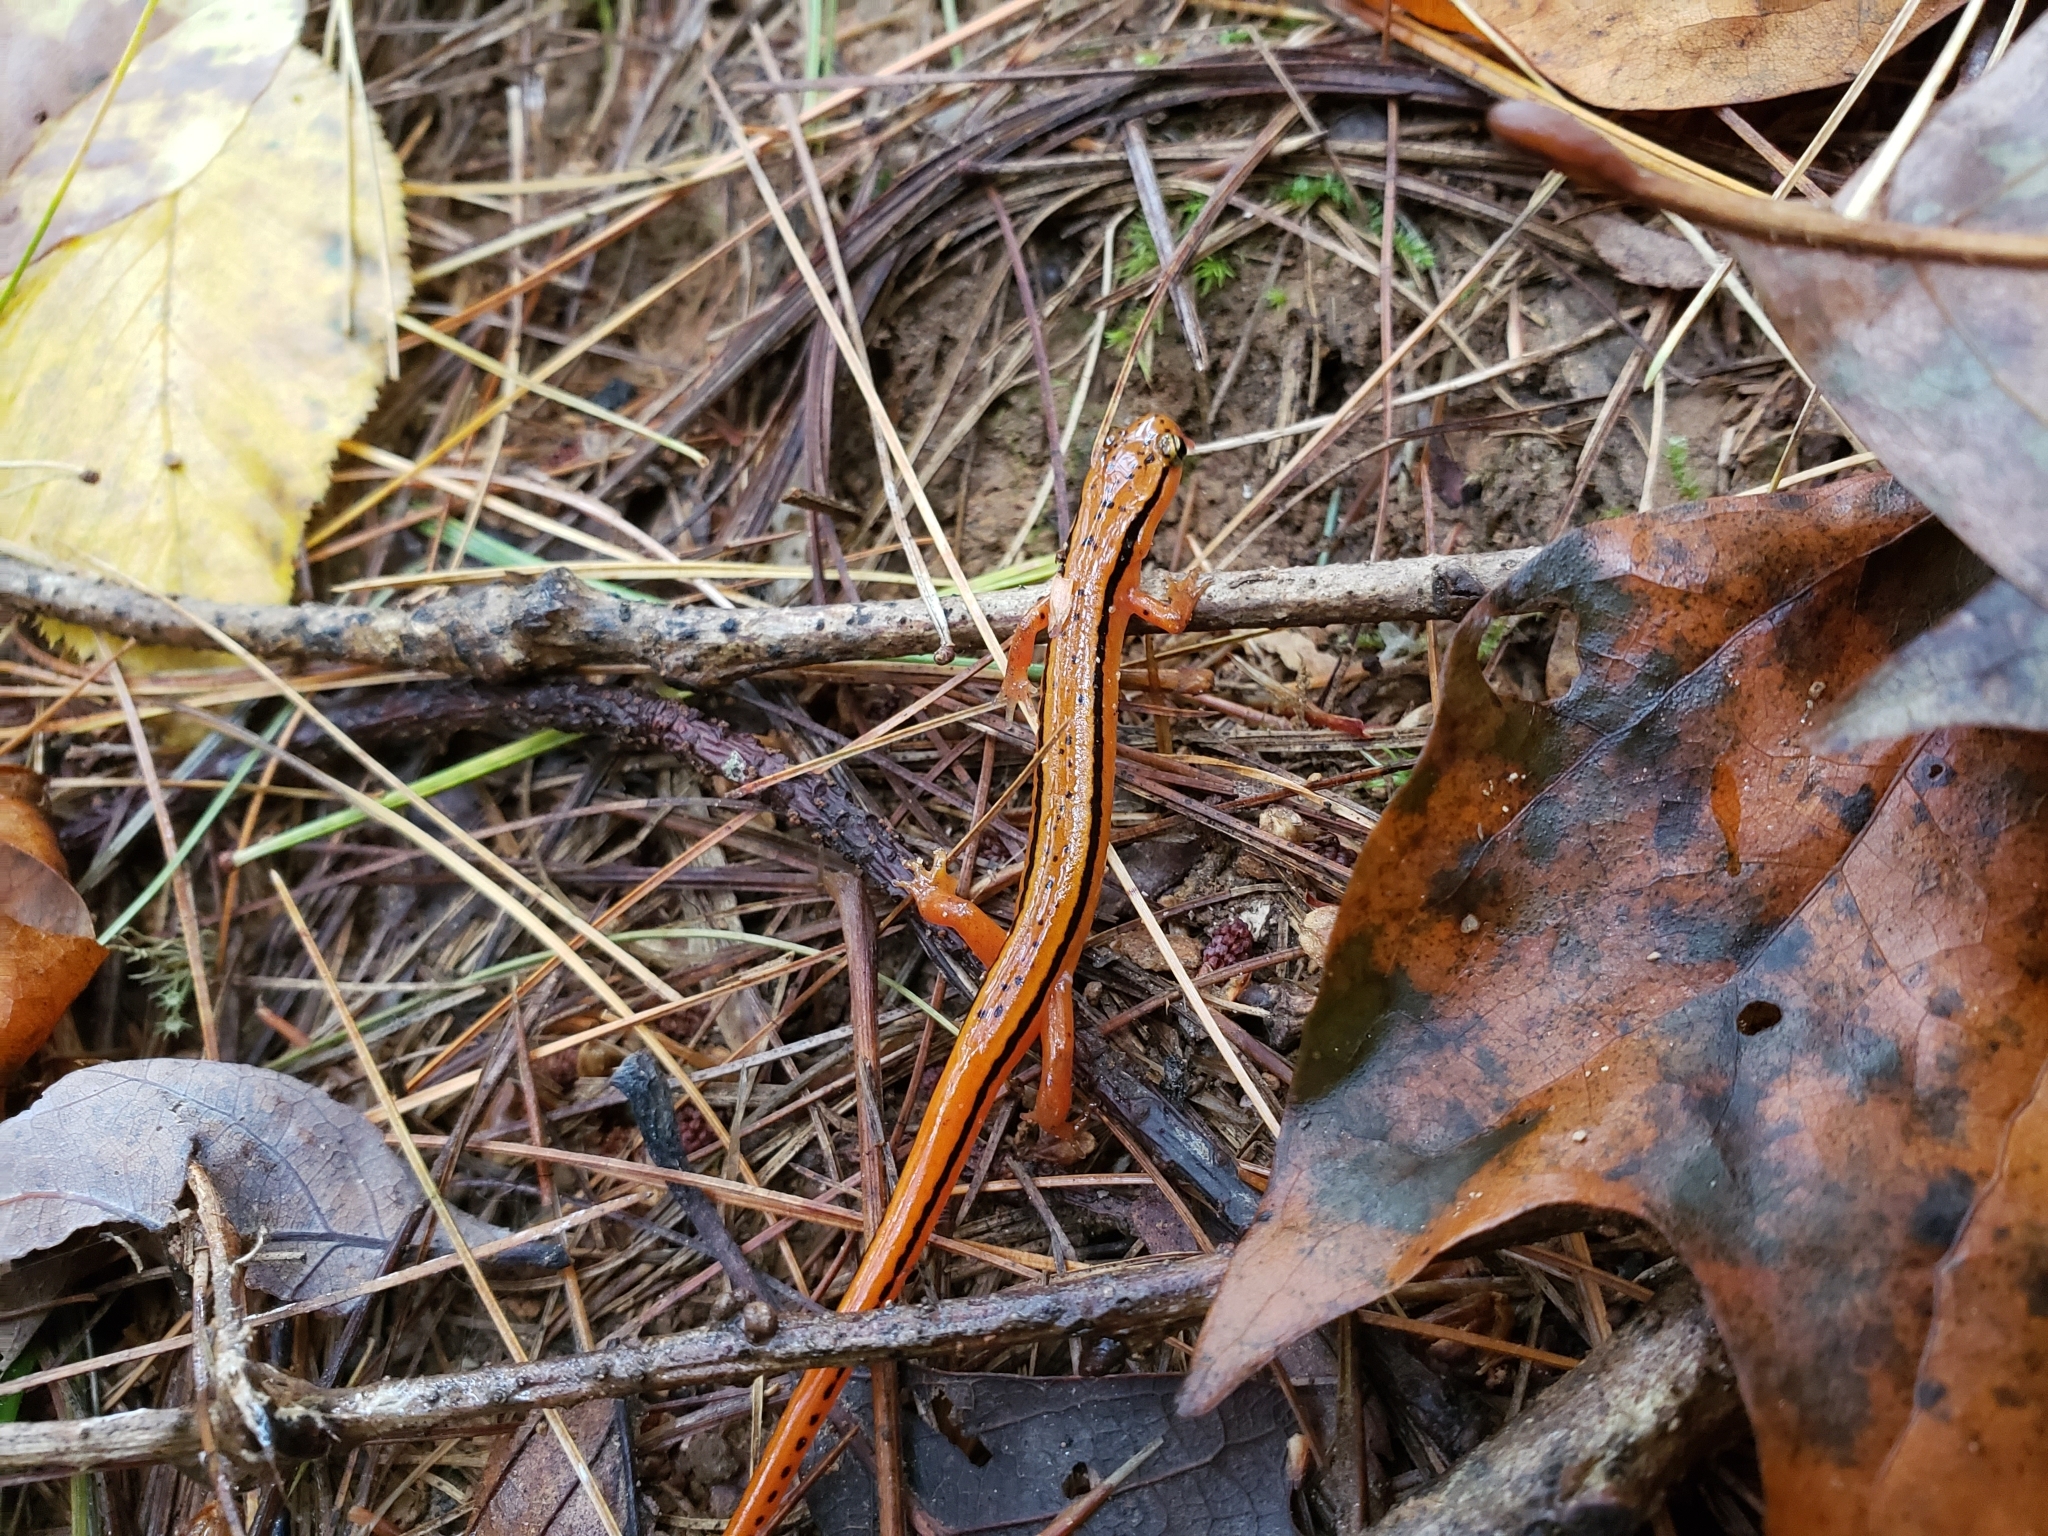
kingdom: Animalia
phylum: Chordata
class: Amphibia
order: Caudata
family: Plethodontidae
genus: Eurycea
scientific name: Eurycea wilderae
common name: Blue ridge two-lined salamander
